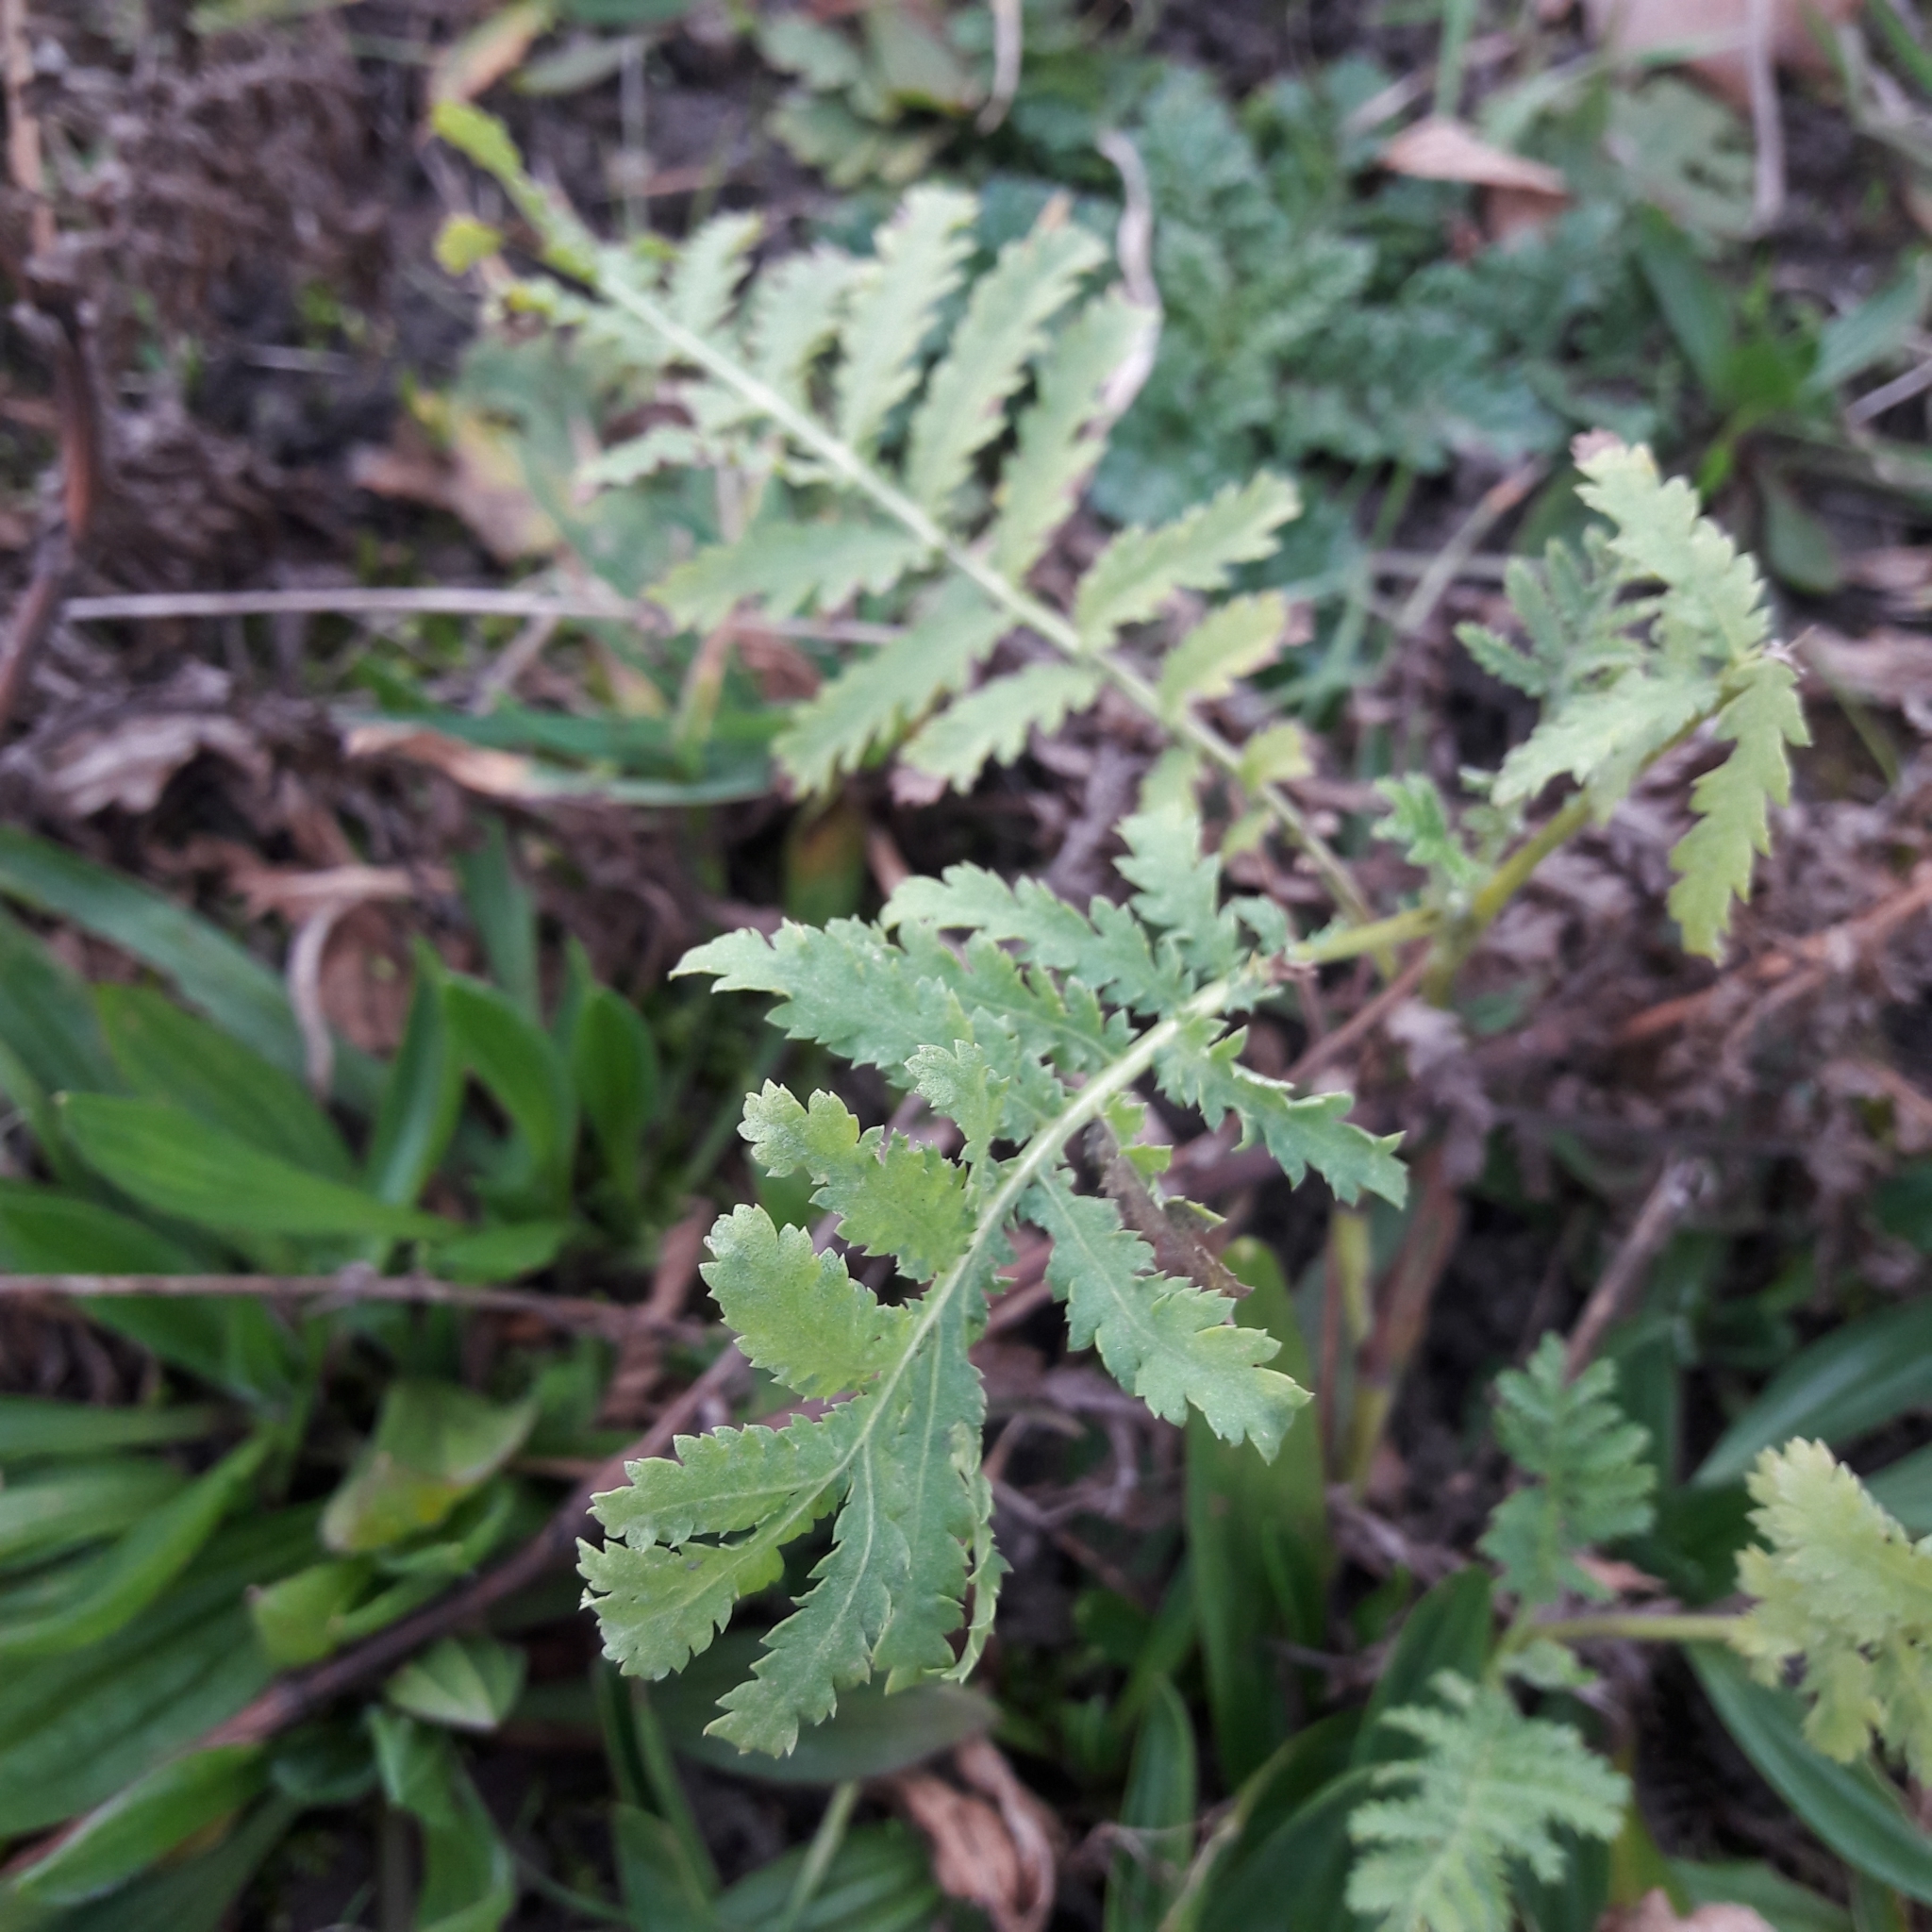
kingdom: Plantae
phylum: Tracheophyta
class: Magnoliopsida
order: Asterales
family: Asteraceae
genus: Tanacetum
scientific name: Tanacetum vulgare
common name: Common tansy
